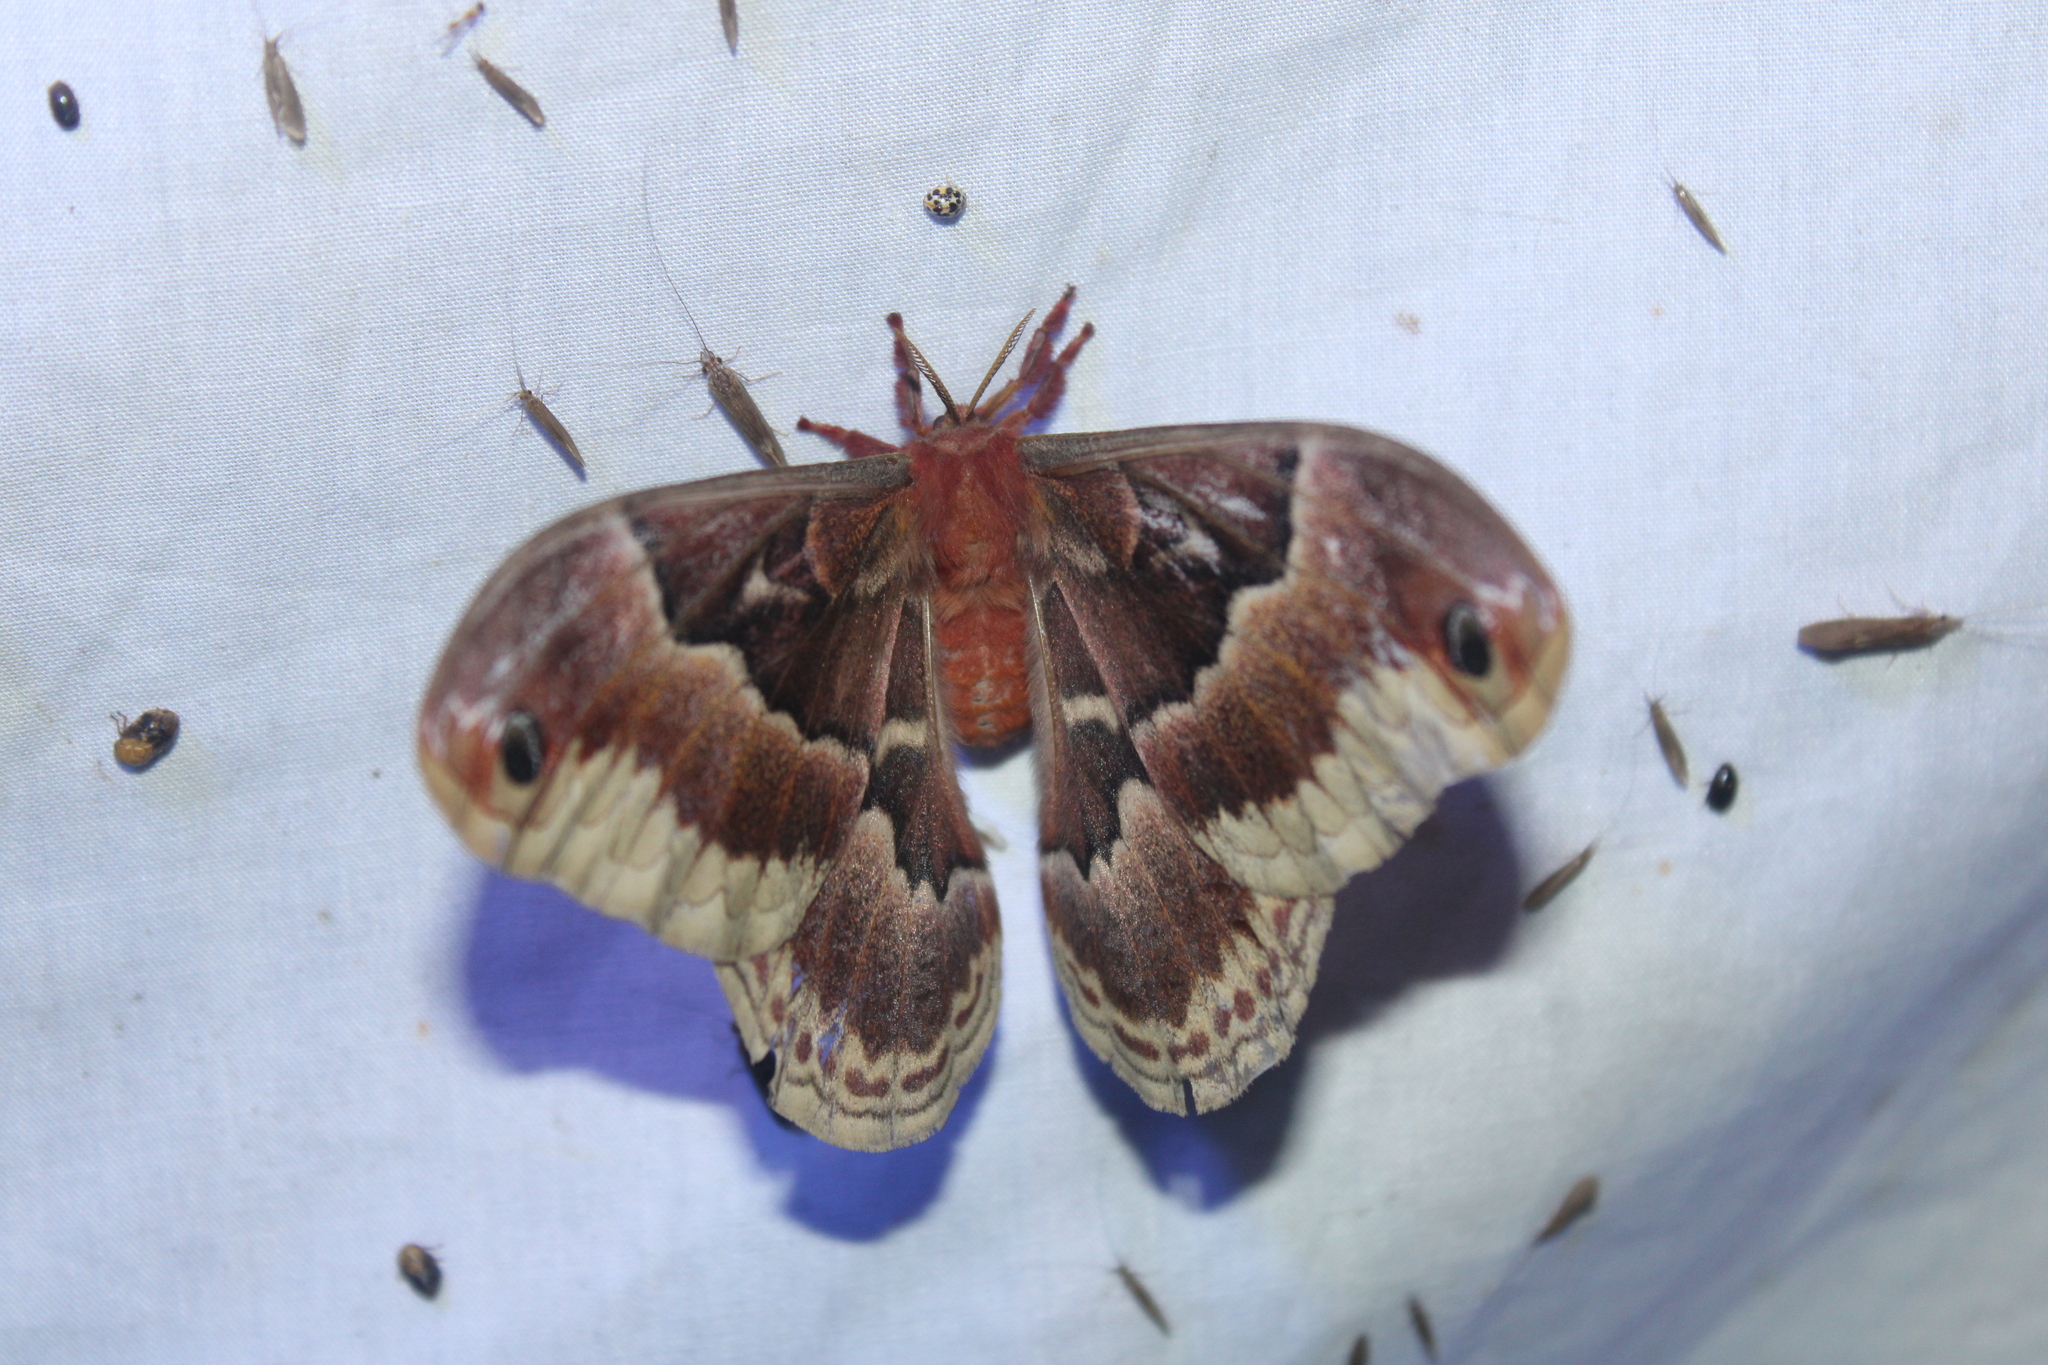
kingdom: Animalia
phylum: Arthropoda
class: Insecta
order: Lepidoptera
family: Saturniidae
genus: Callosamia
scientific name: Callosamia promethea
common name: Promethea silkmoth
